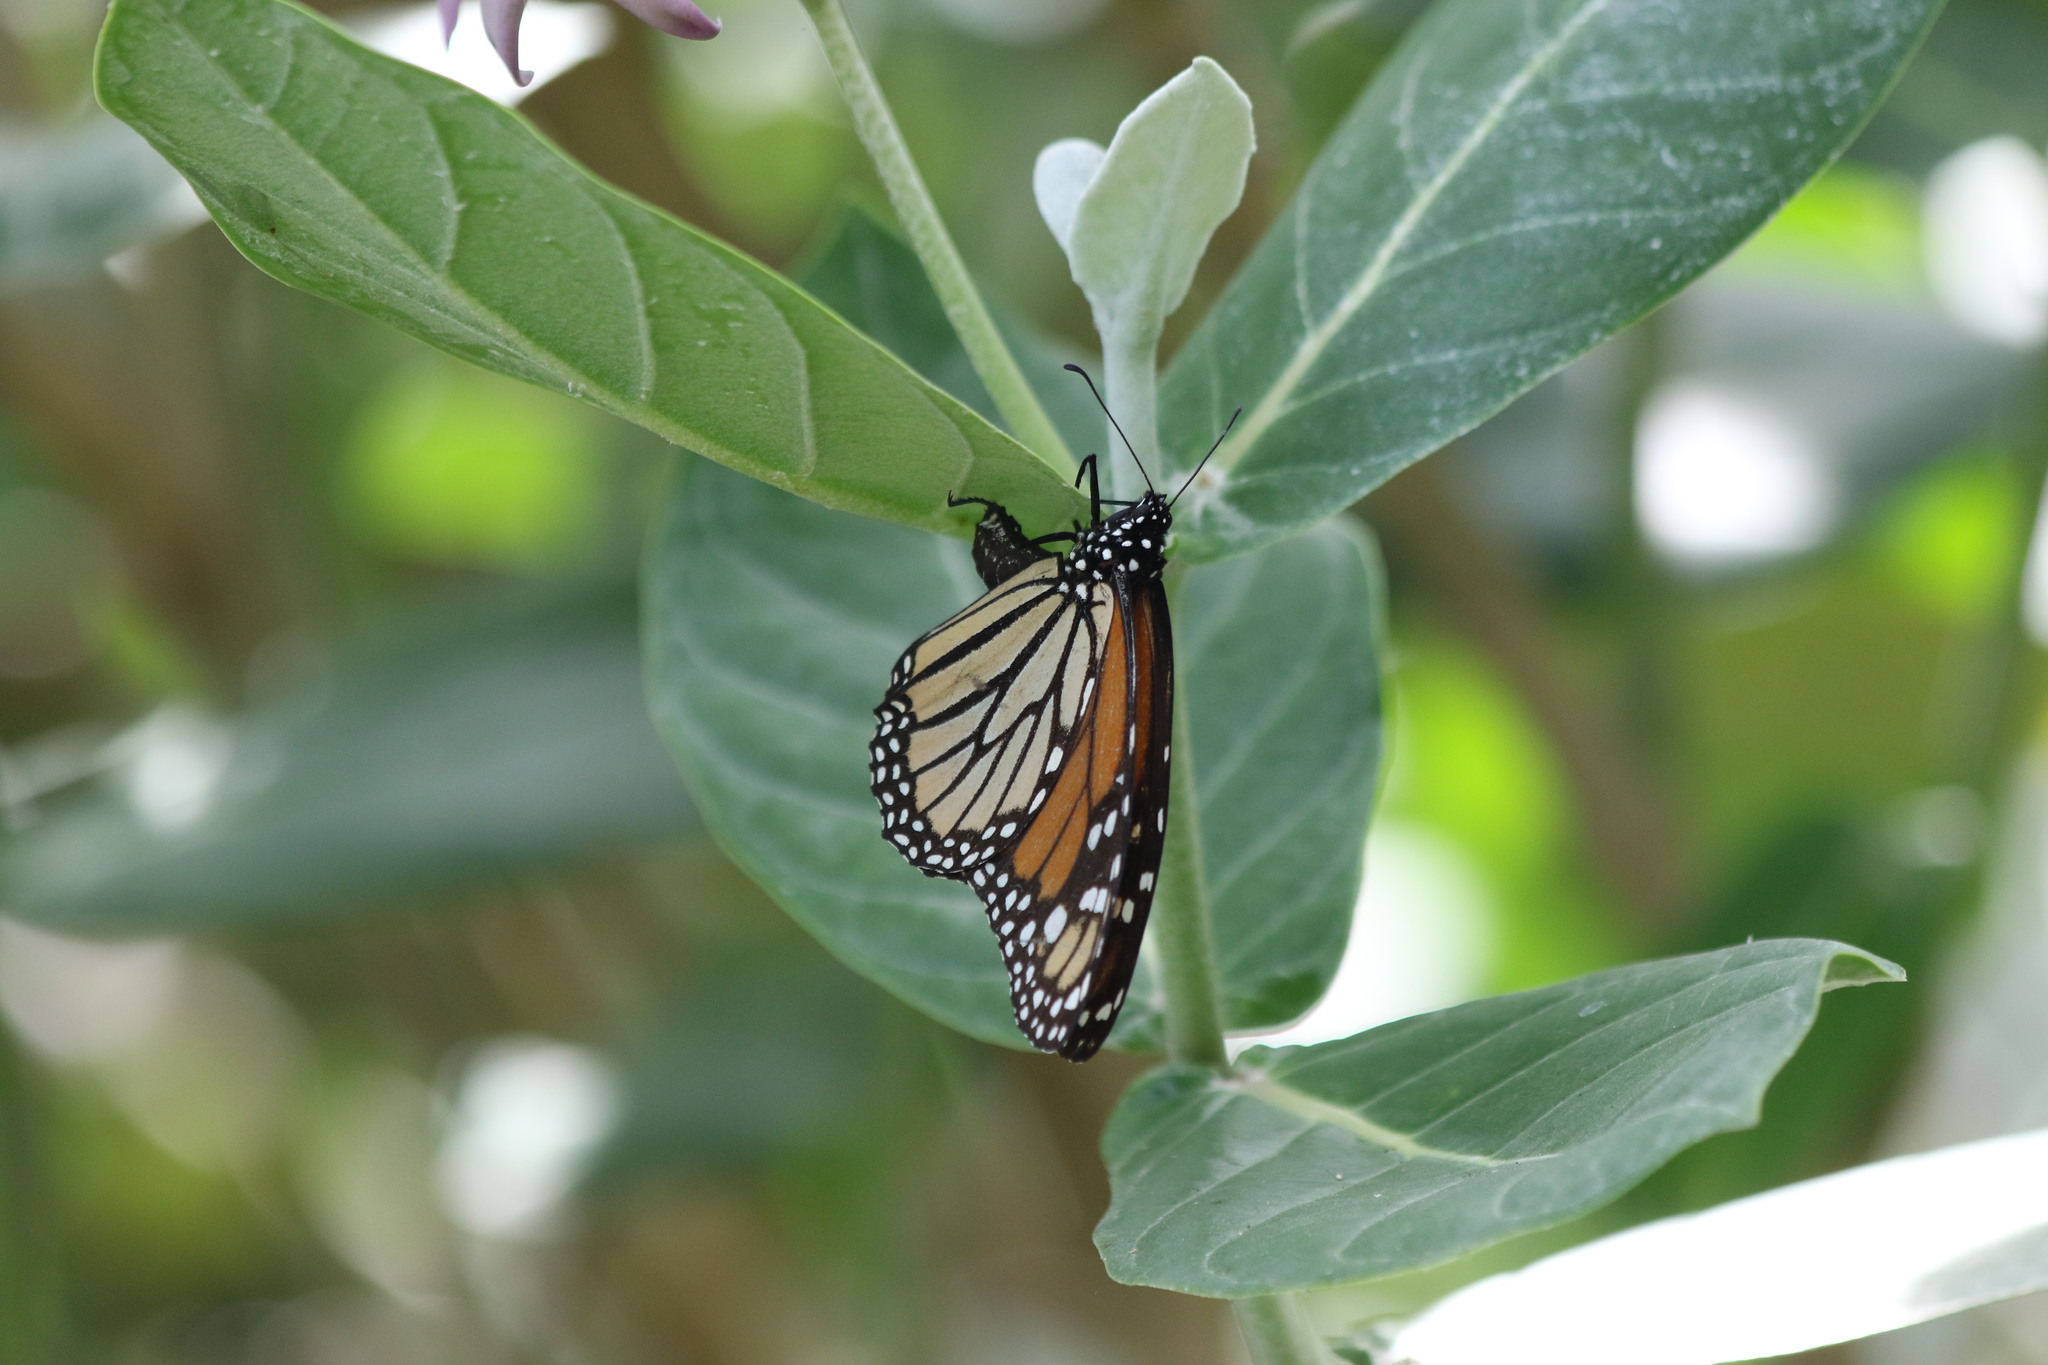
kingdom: Animalia
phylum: Arthropoda
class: Insecta
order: Lepidoptera
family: Nymphalidae
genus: Danaus
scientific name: Danaus plexippus
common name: Monarch
